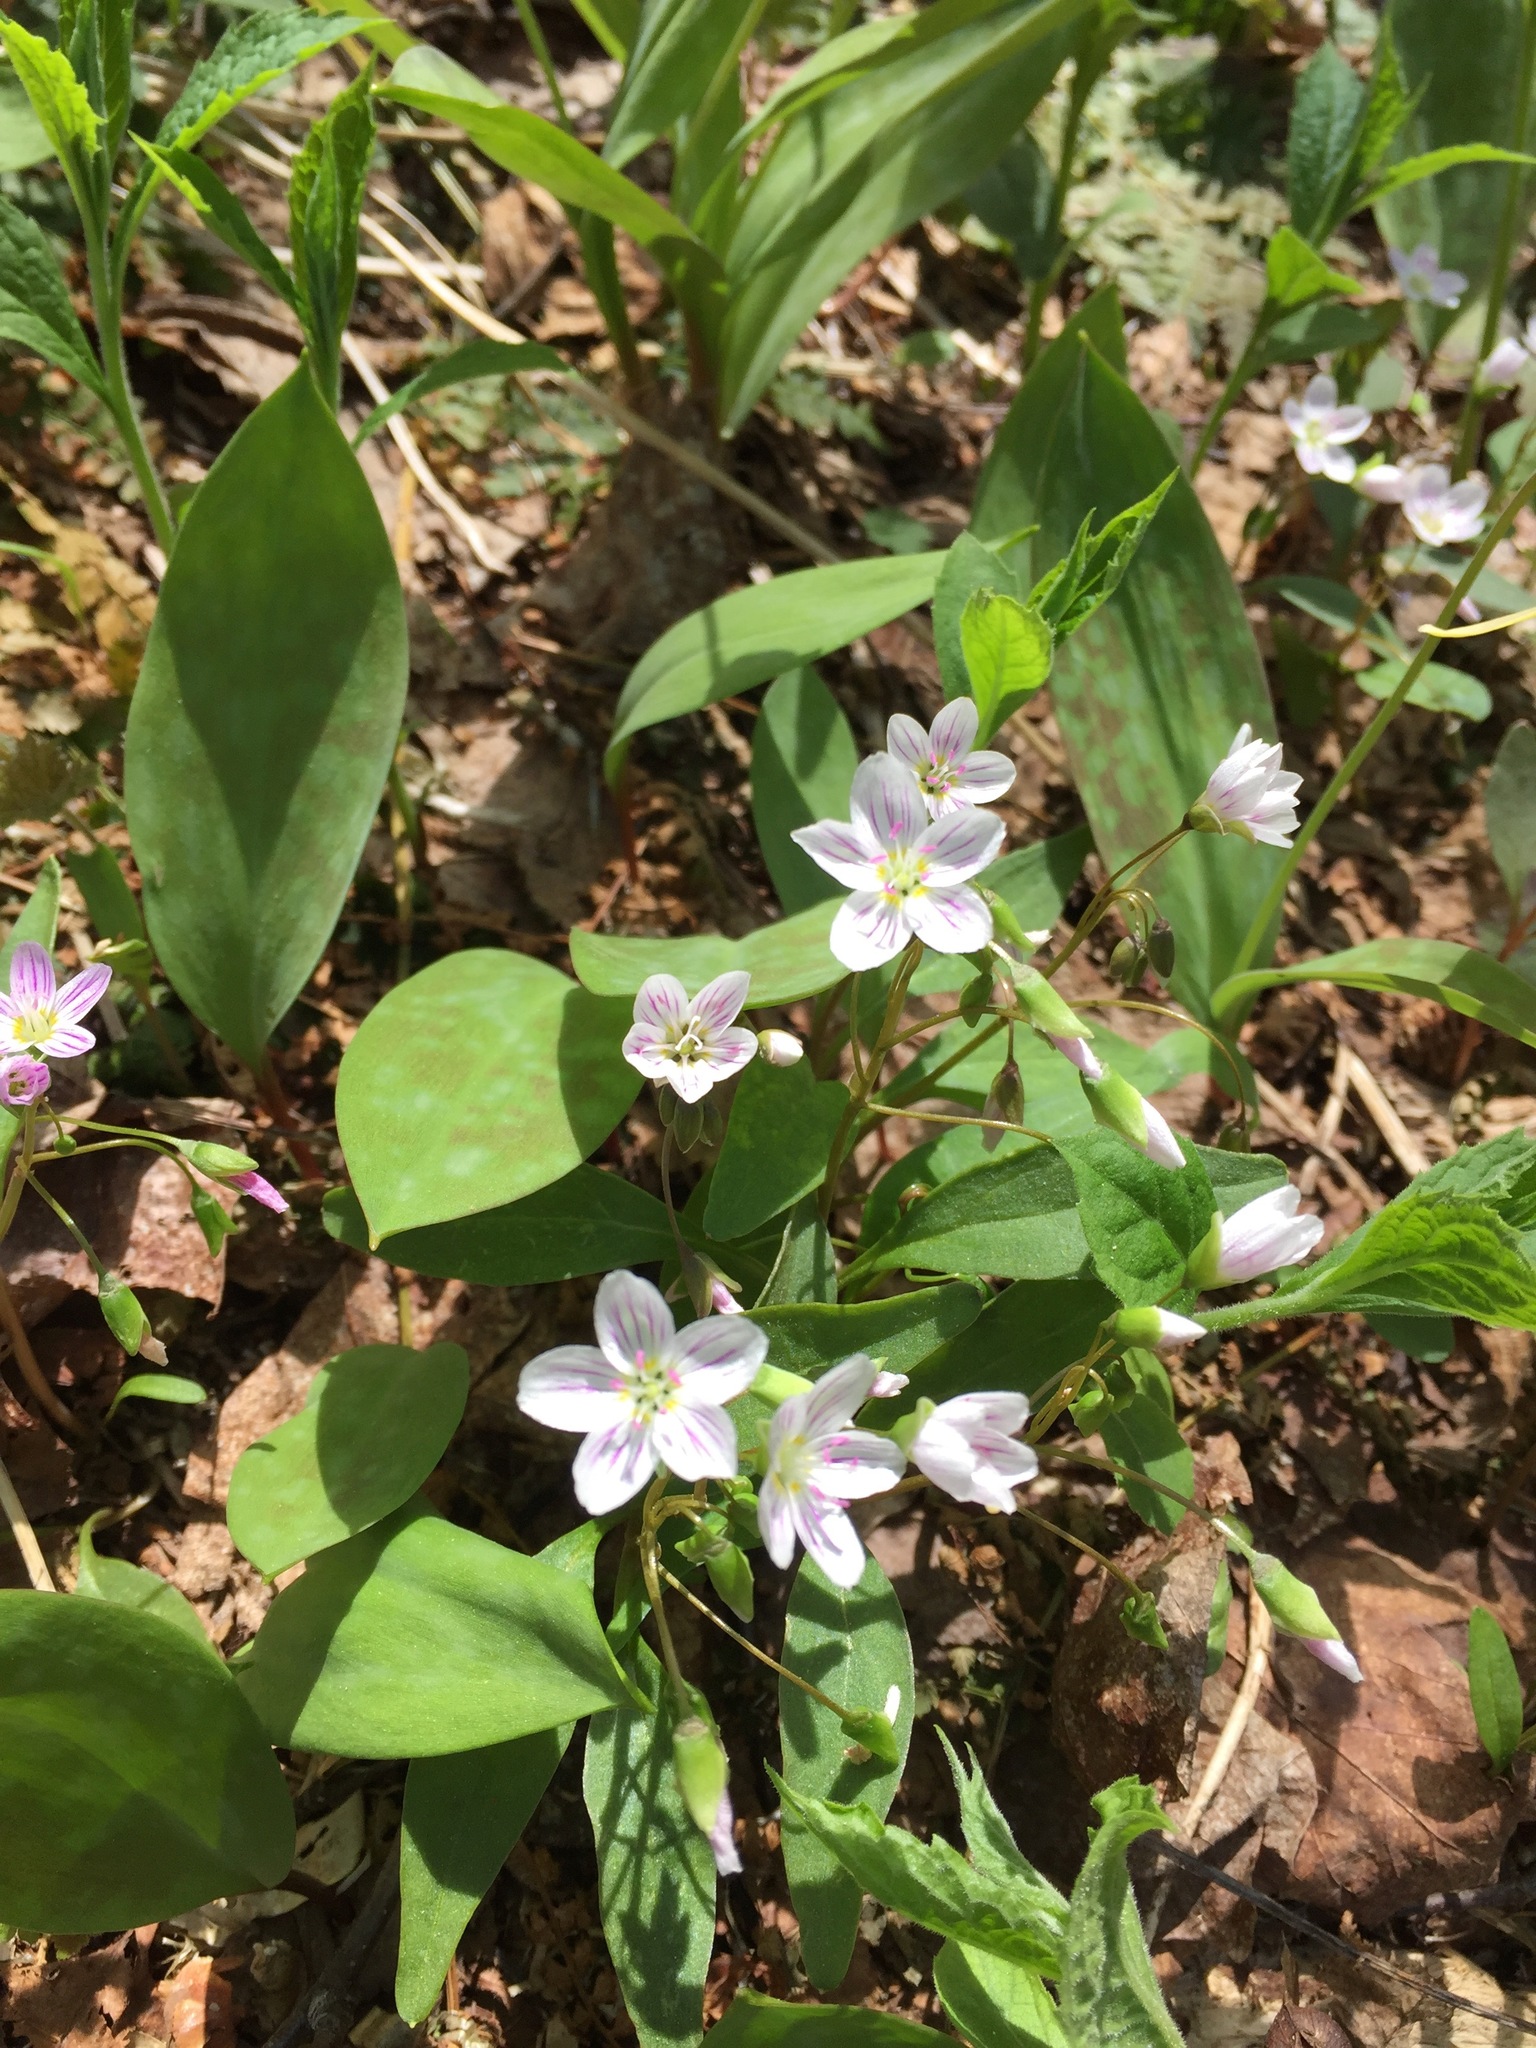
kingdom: Plantae
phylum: Tracheophyta
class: Magnoliopsida
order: Caryophyllales
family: Montiaceae
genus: Claytonia
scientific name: Claytonia caroliniana
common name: Carolina spring beauty
